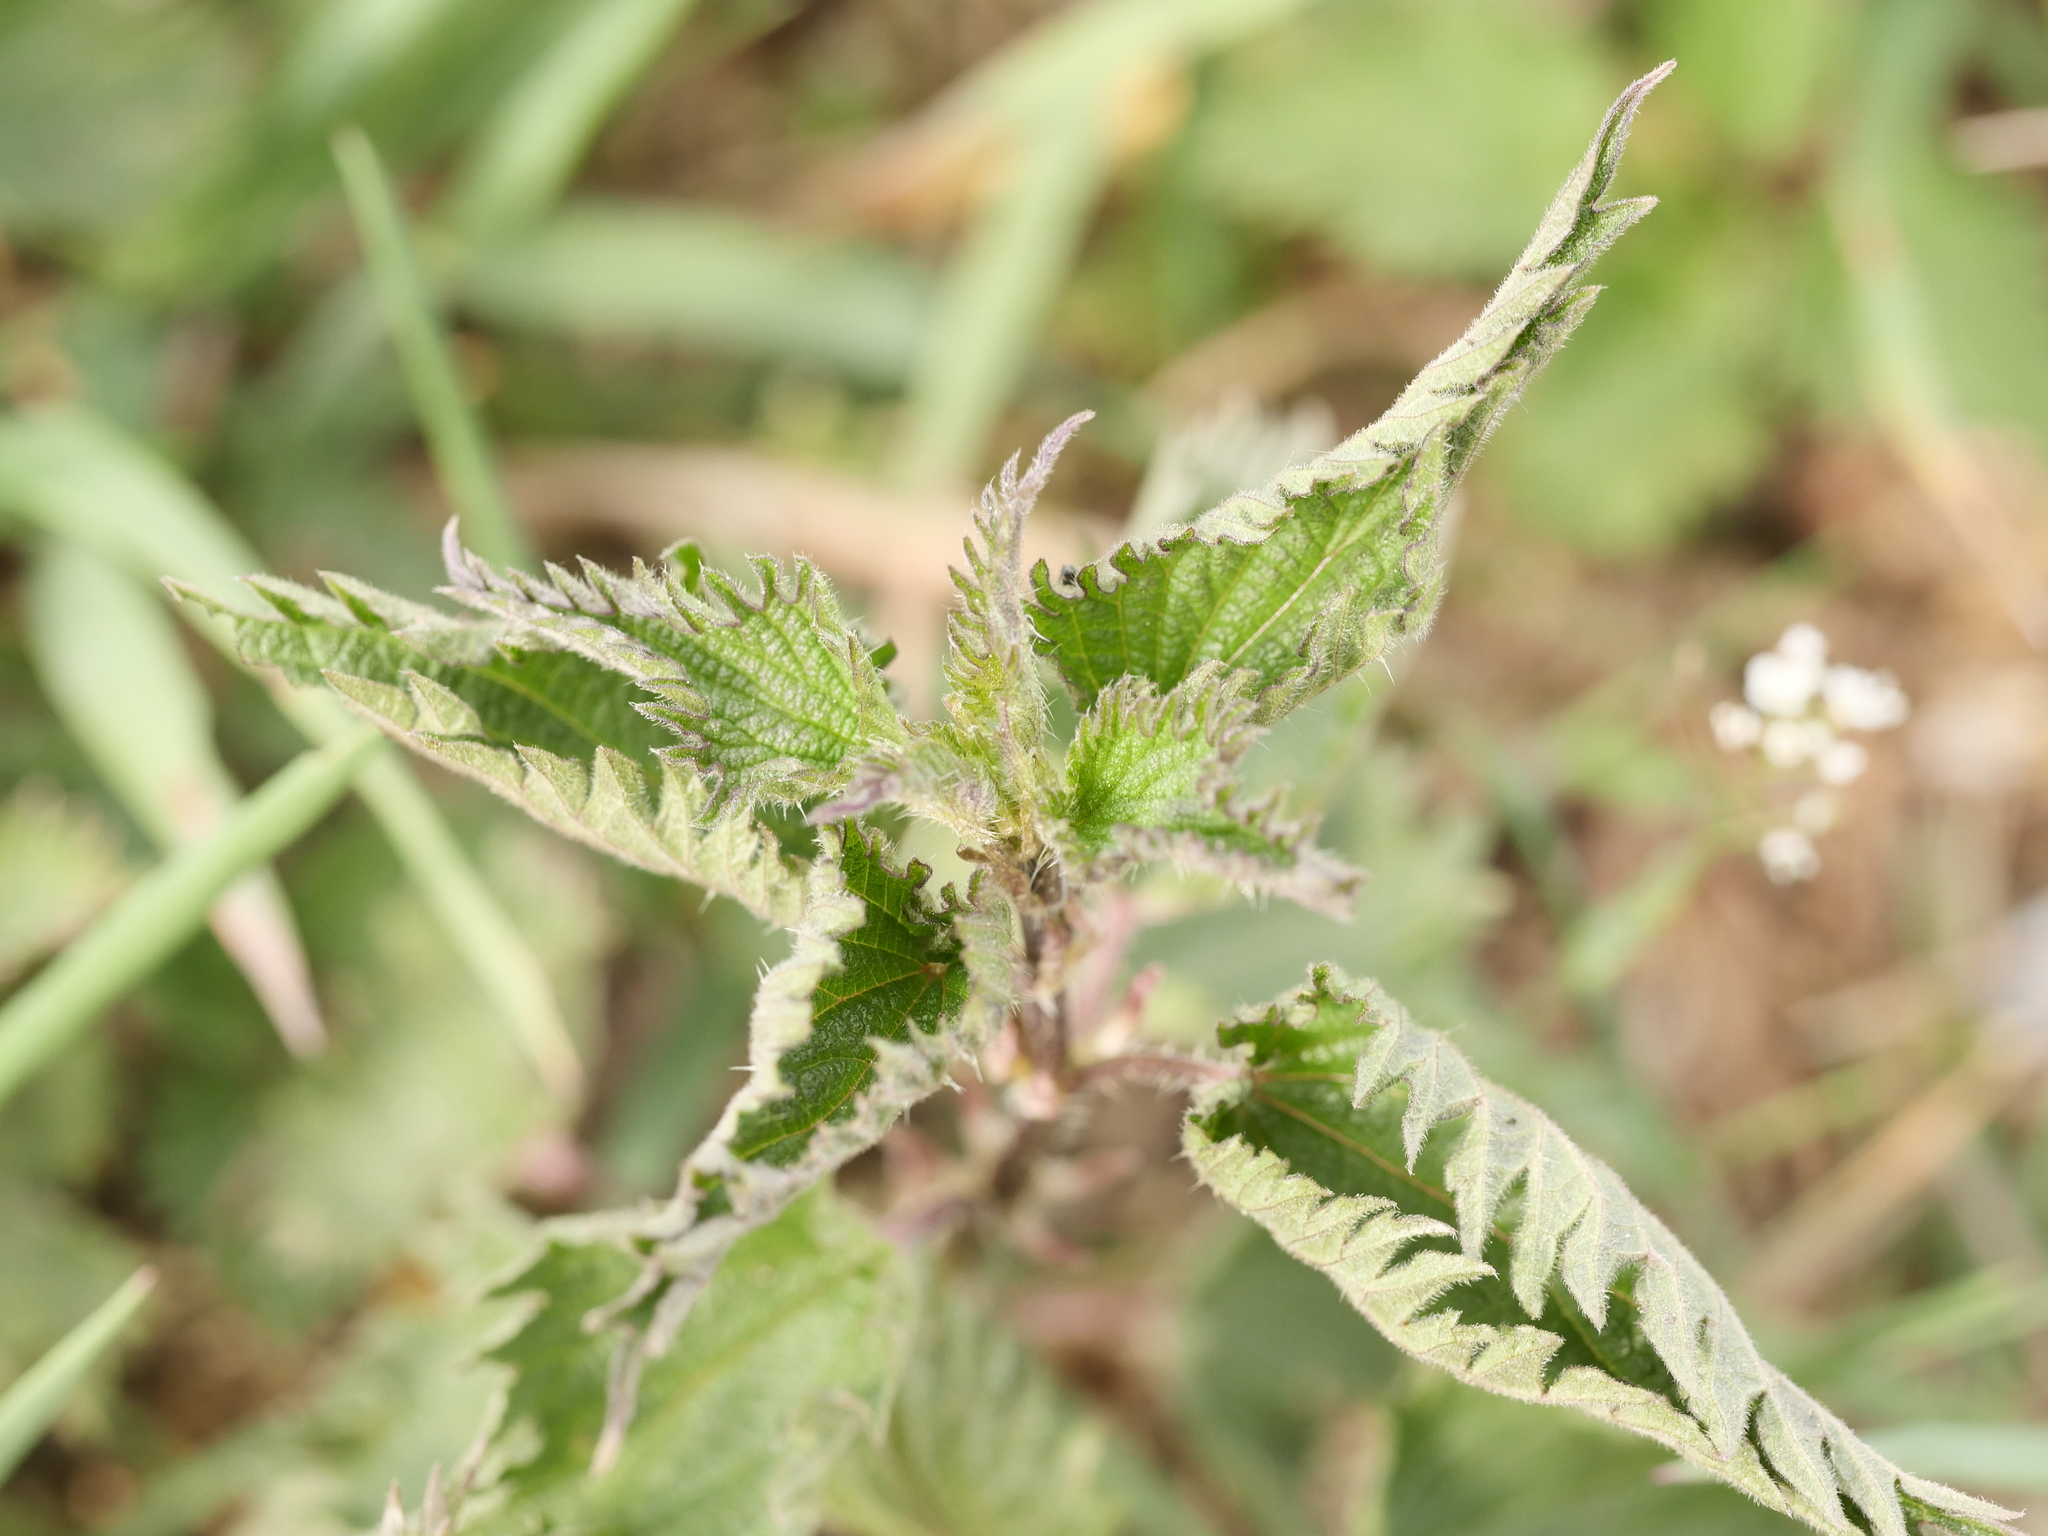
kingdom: Plantae
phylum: Tracheophyta
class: Magnoliopsida
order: Rosales
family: Urticaceae
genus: Urtica
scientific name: Urtica dioica
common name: Common nettle
